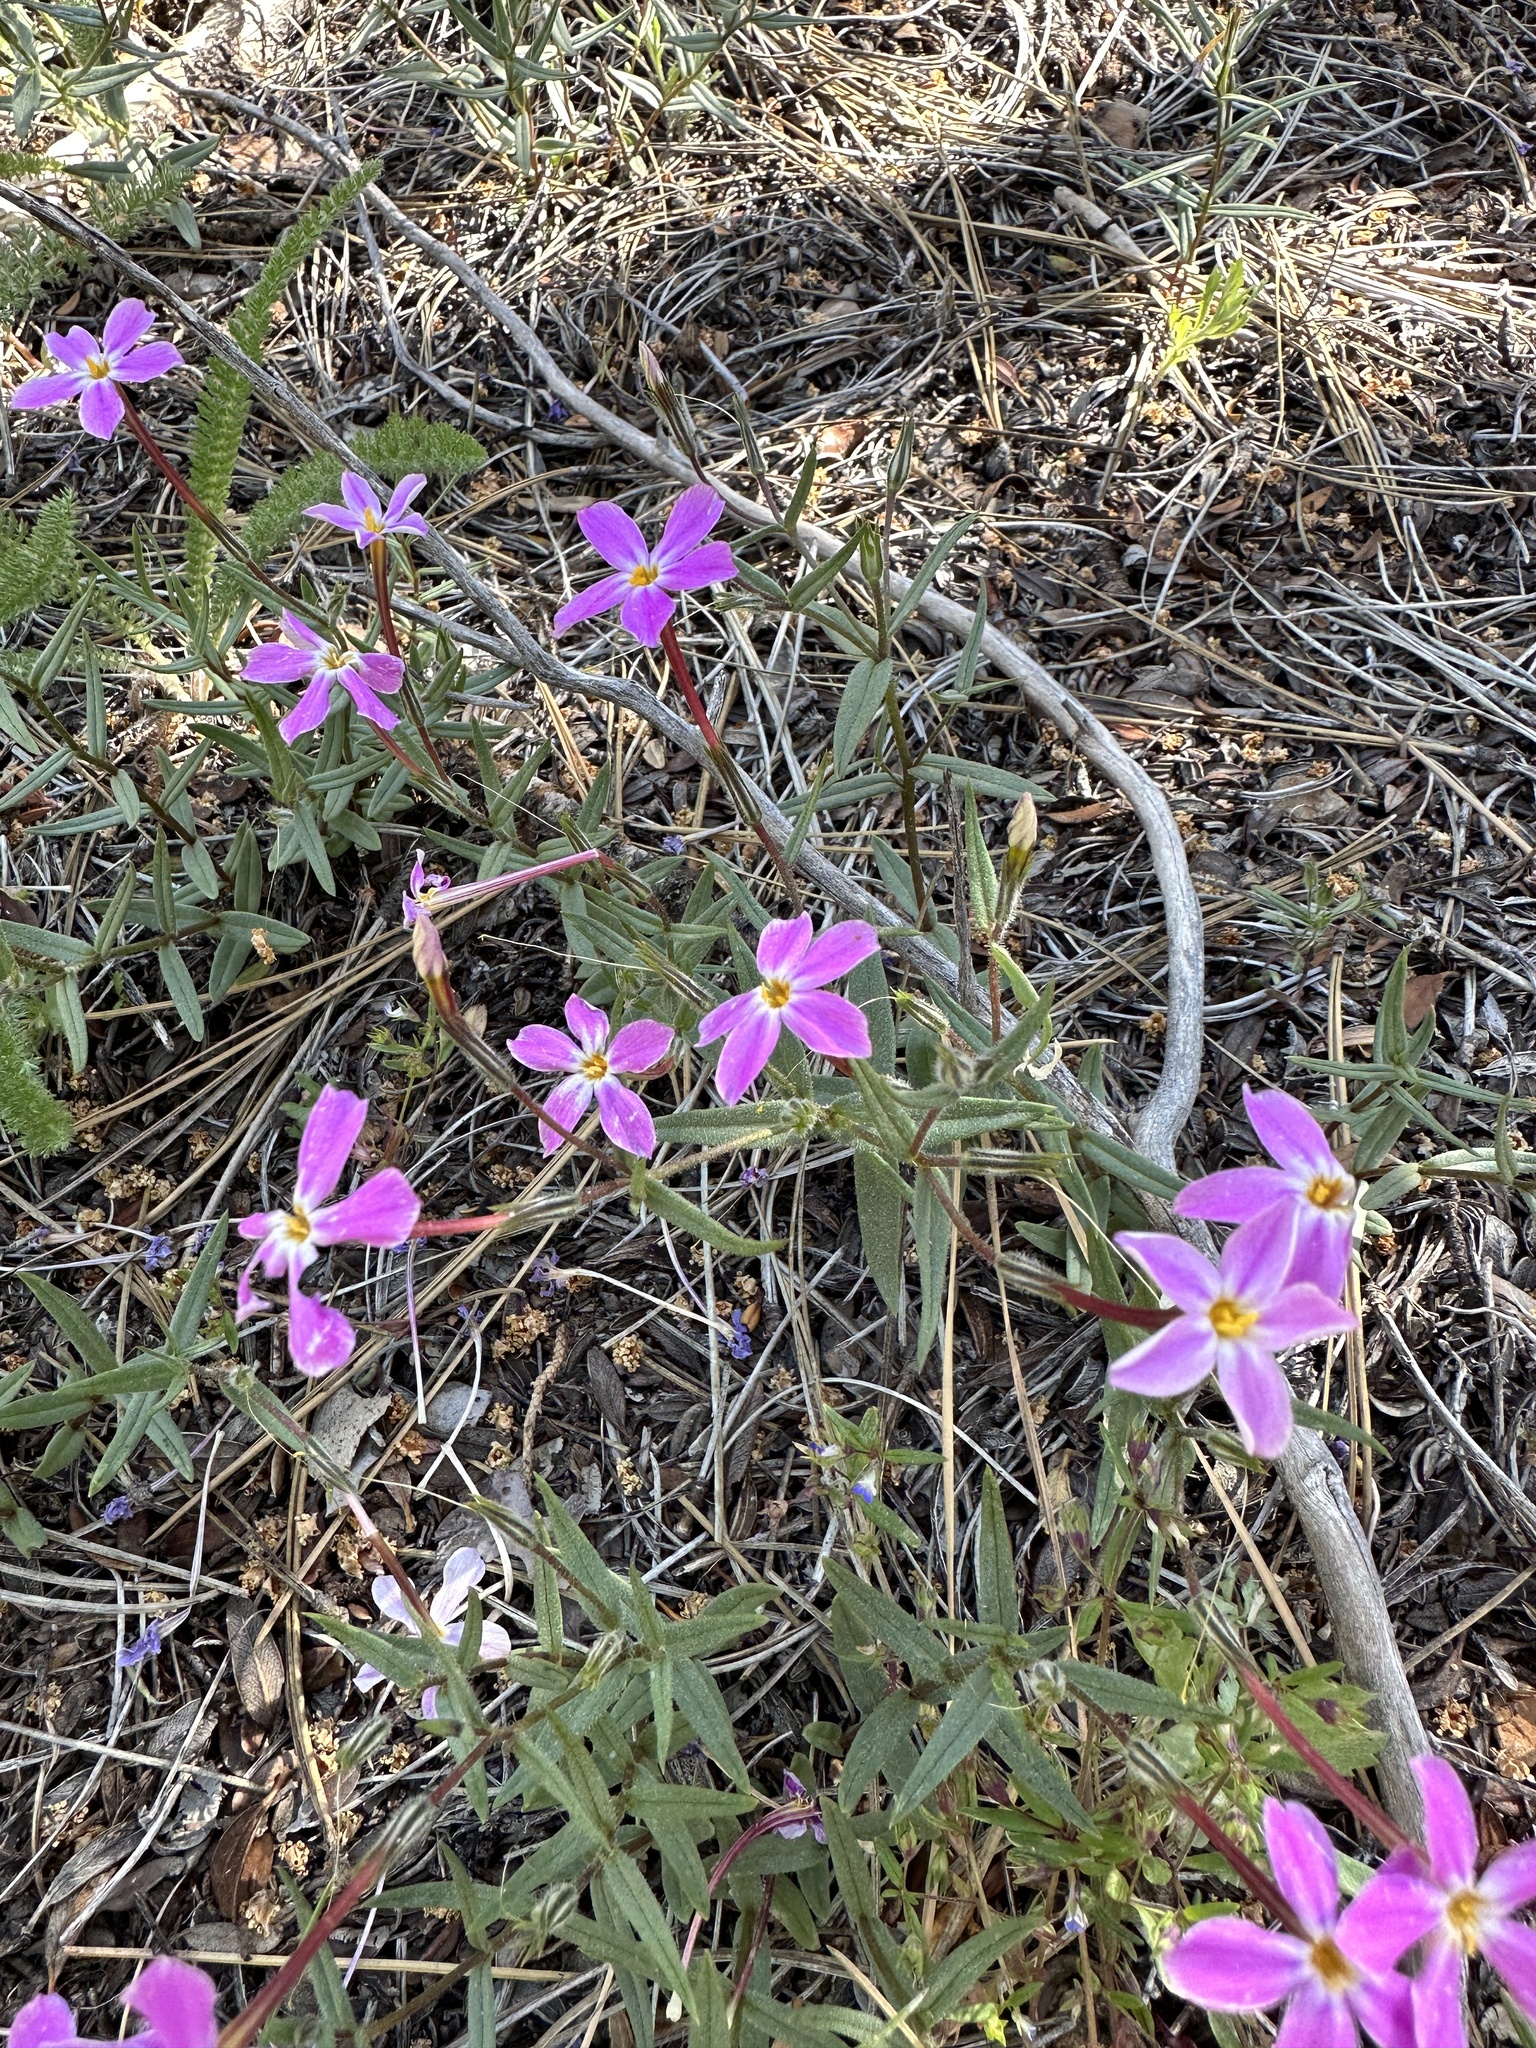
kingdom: Plantae
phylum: Tracheophyta
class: Magnoliopsida
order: Ericales
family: Polemoniaceae
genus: Phlox
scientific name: Phlox dolichantha
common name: Bear valley phlox
